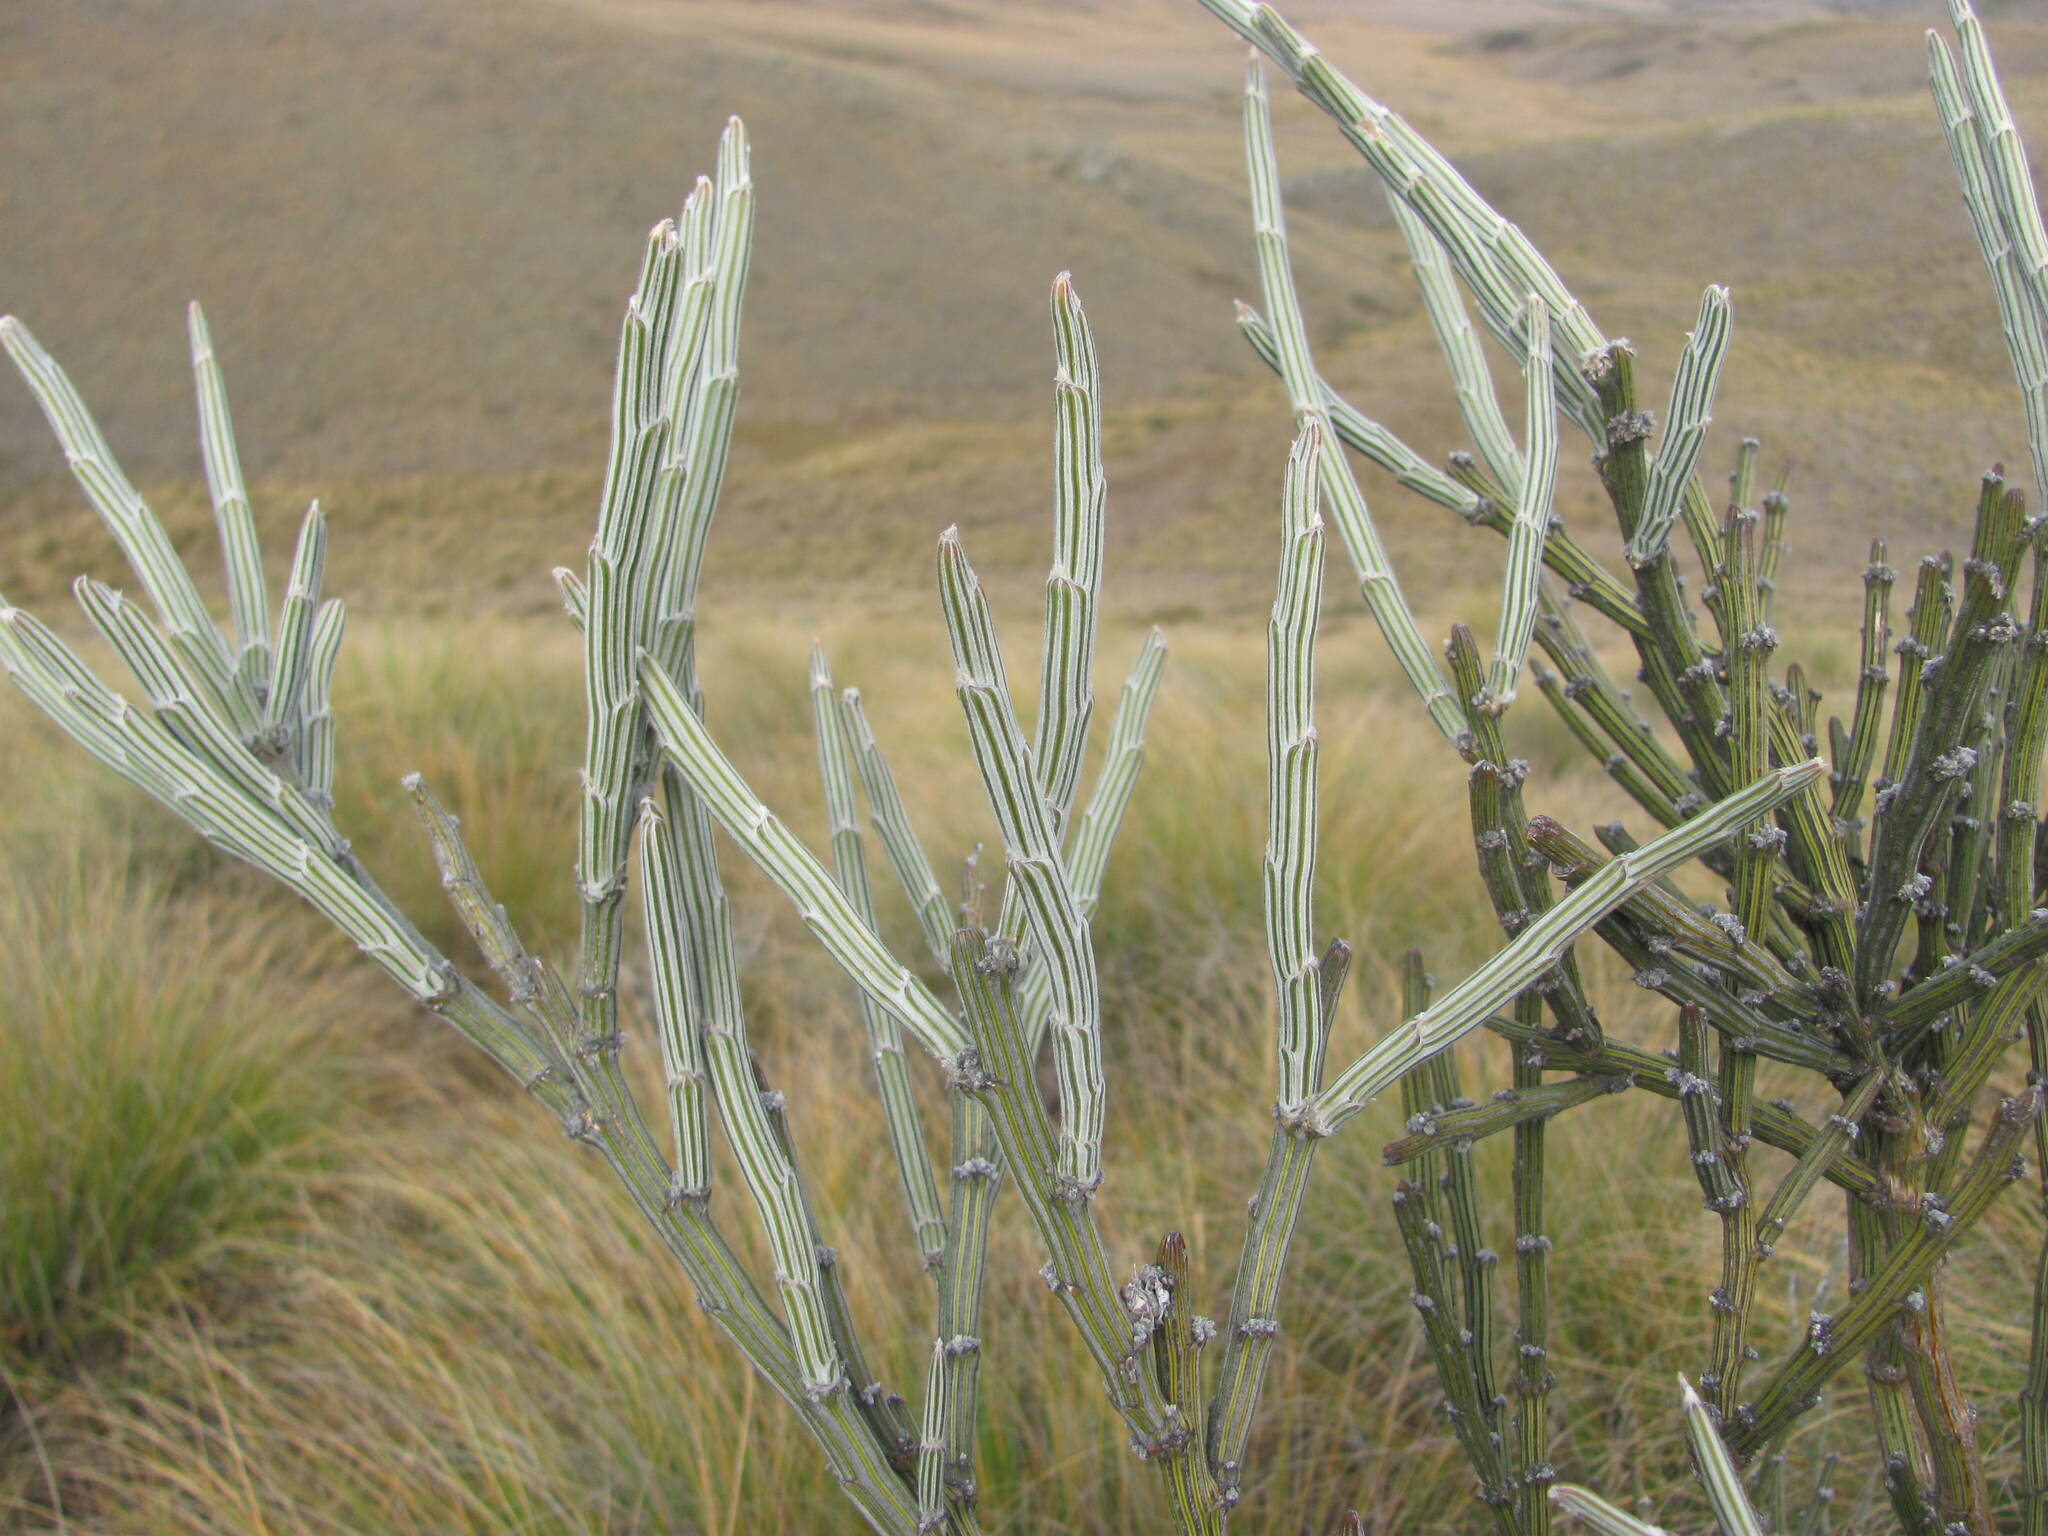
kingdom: Plantae
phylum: Tracheophyta
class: Magnoliopsida
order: Fabales
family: Fabaceae
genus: Carmichaelia
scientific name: Carmichaelia crassicaulis
